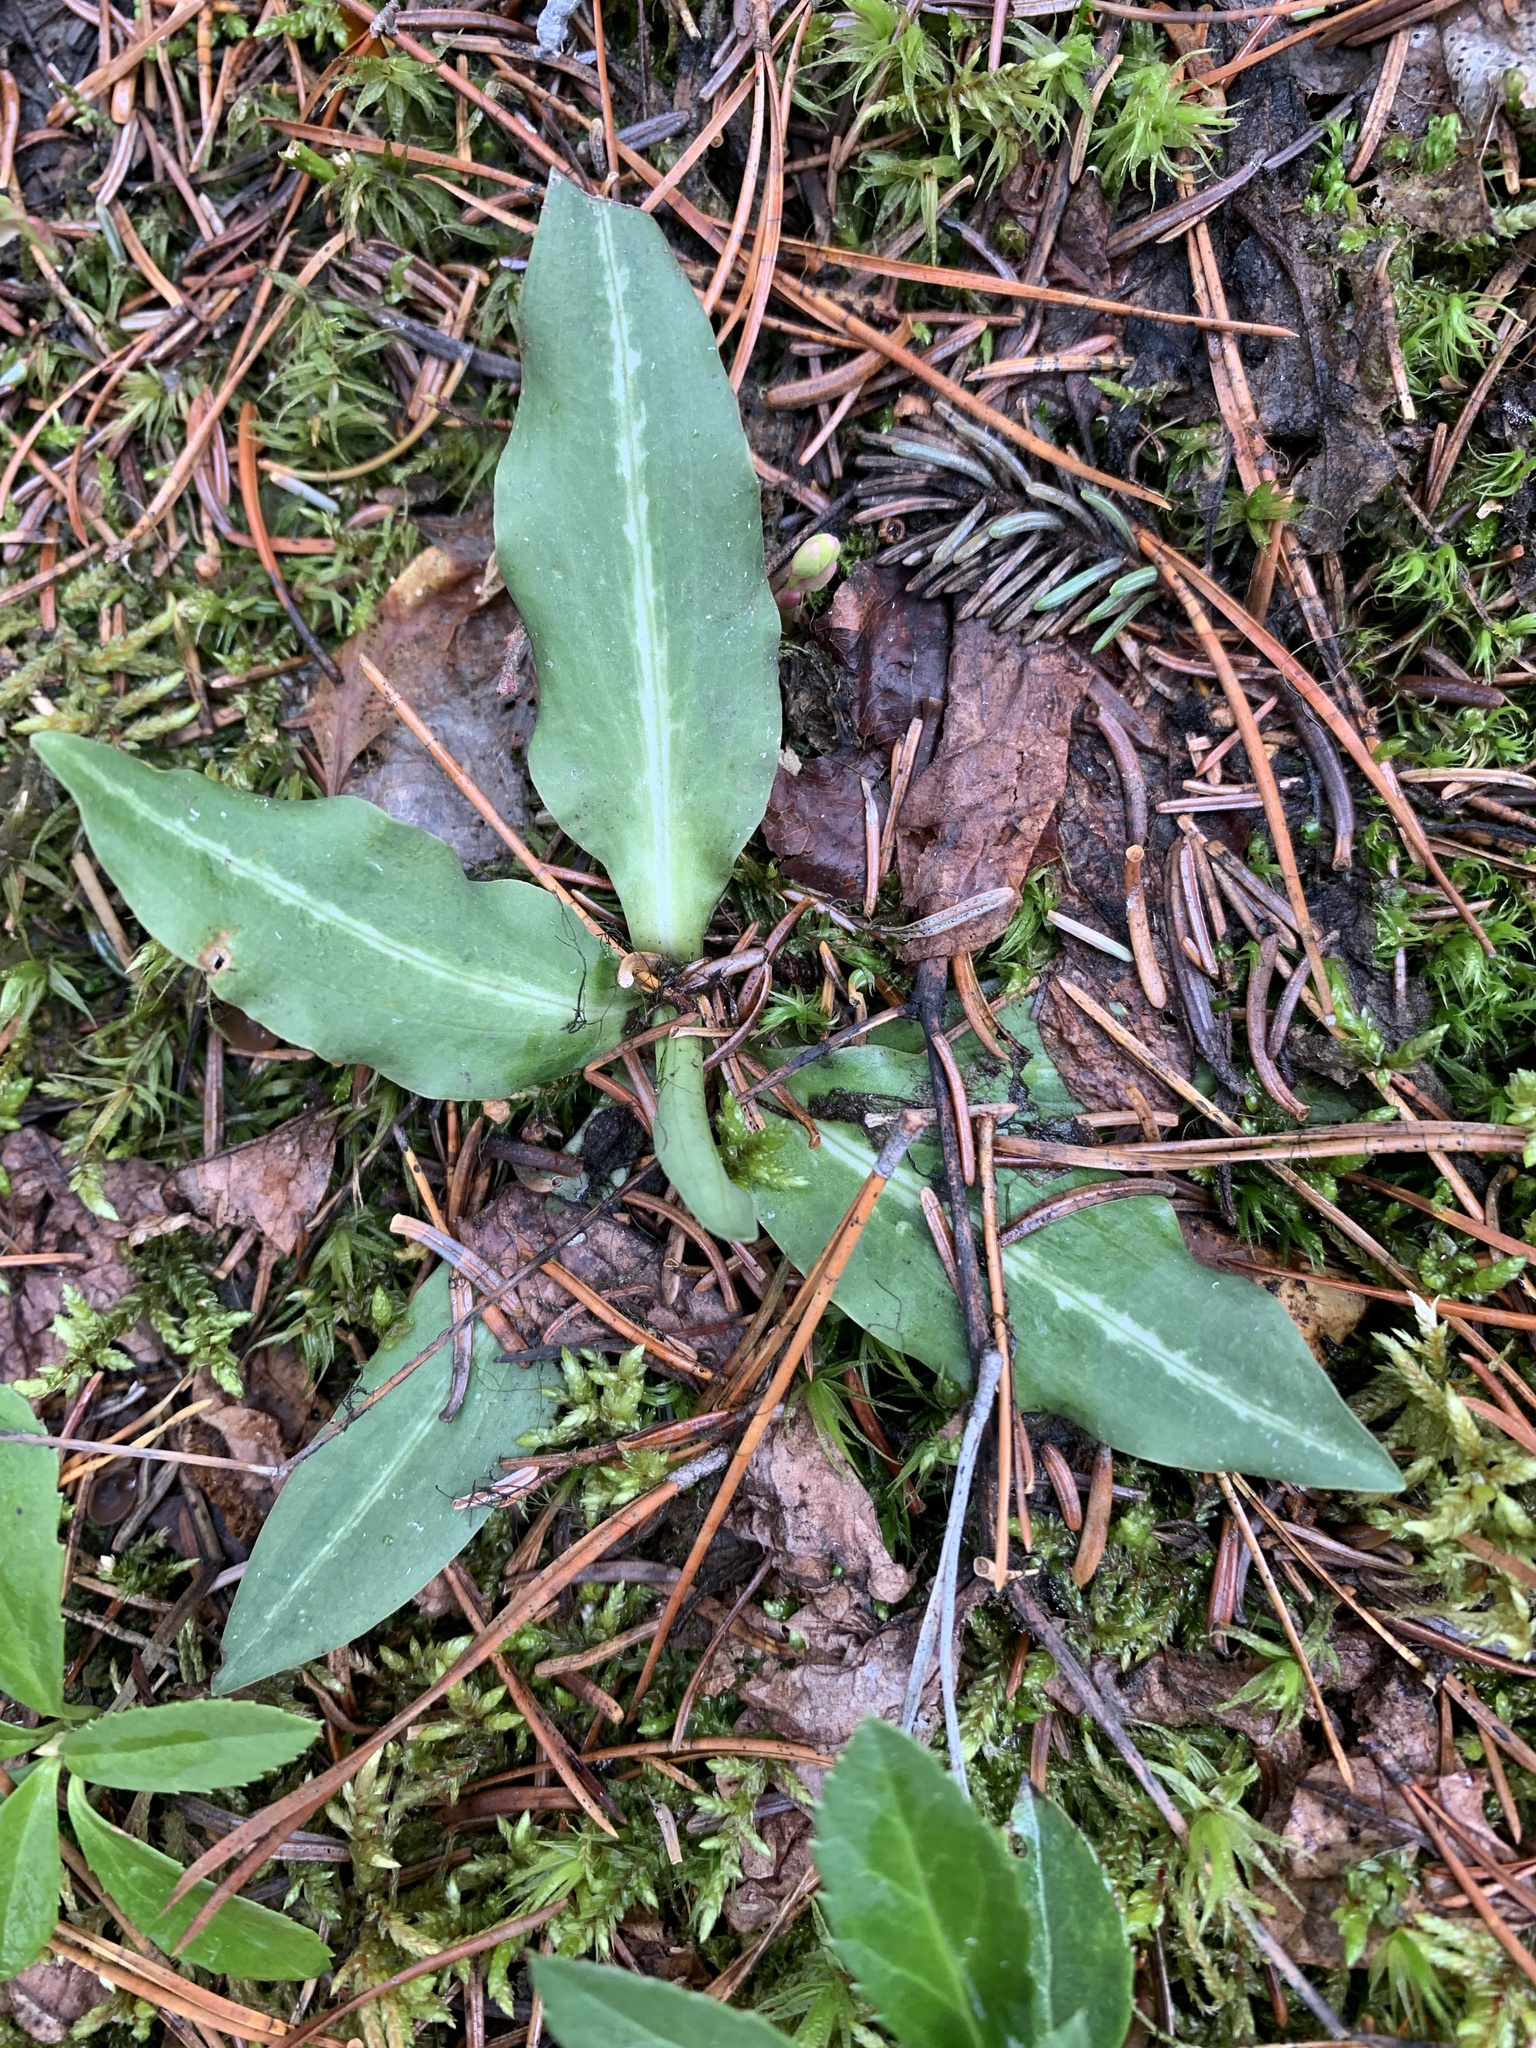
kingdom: Plantae
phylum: Tracheophyta
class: Liliopsida
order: Asparagales
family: Orchidaceae
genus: Goodyera
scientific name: Goodyera oblongifolia
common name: Giant rattlesnake-plantain
